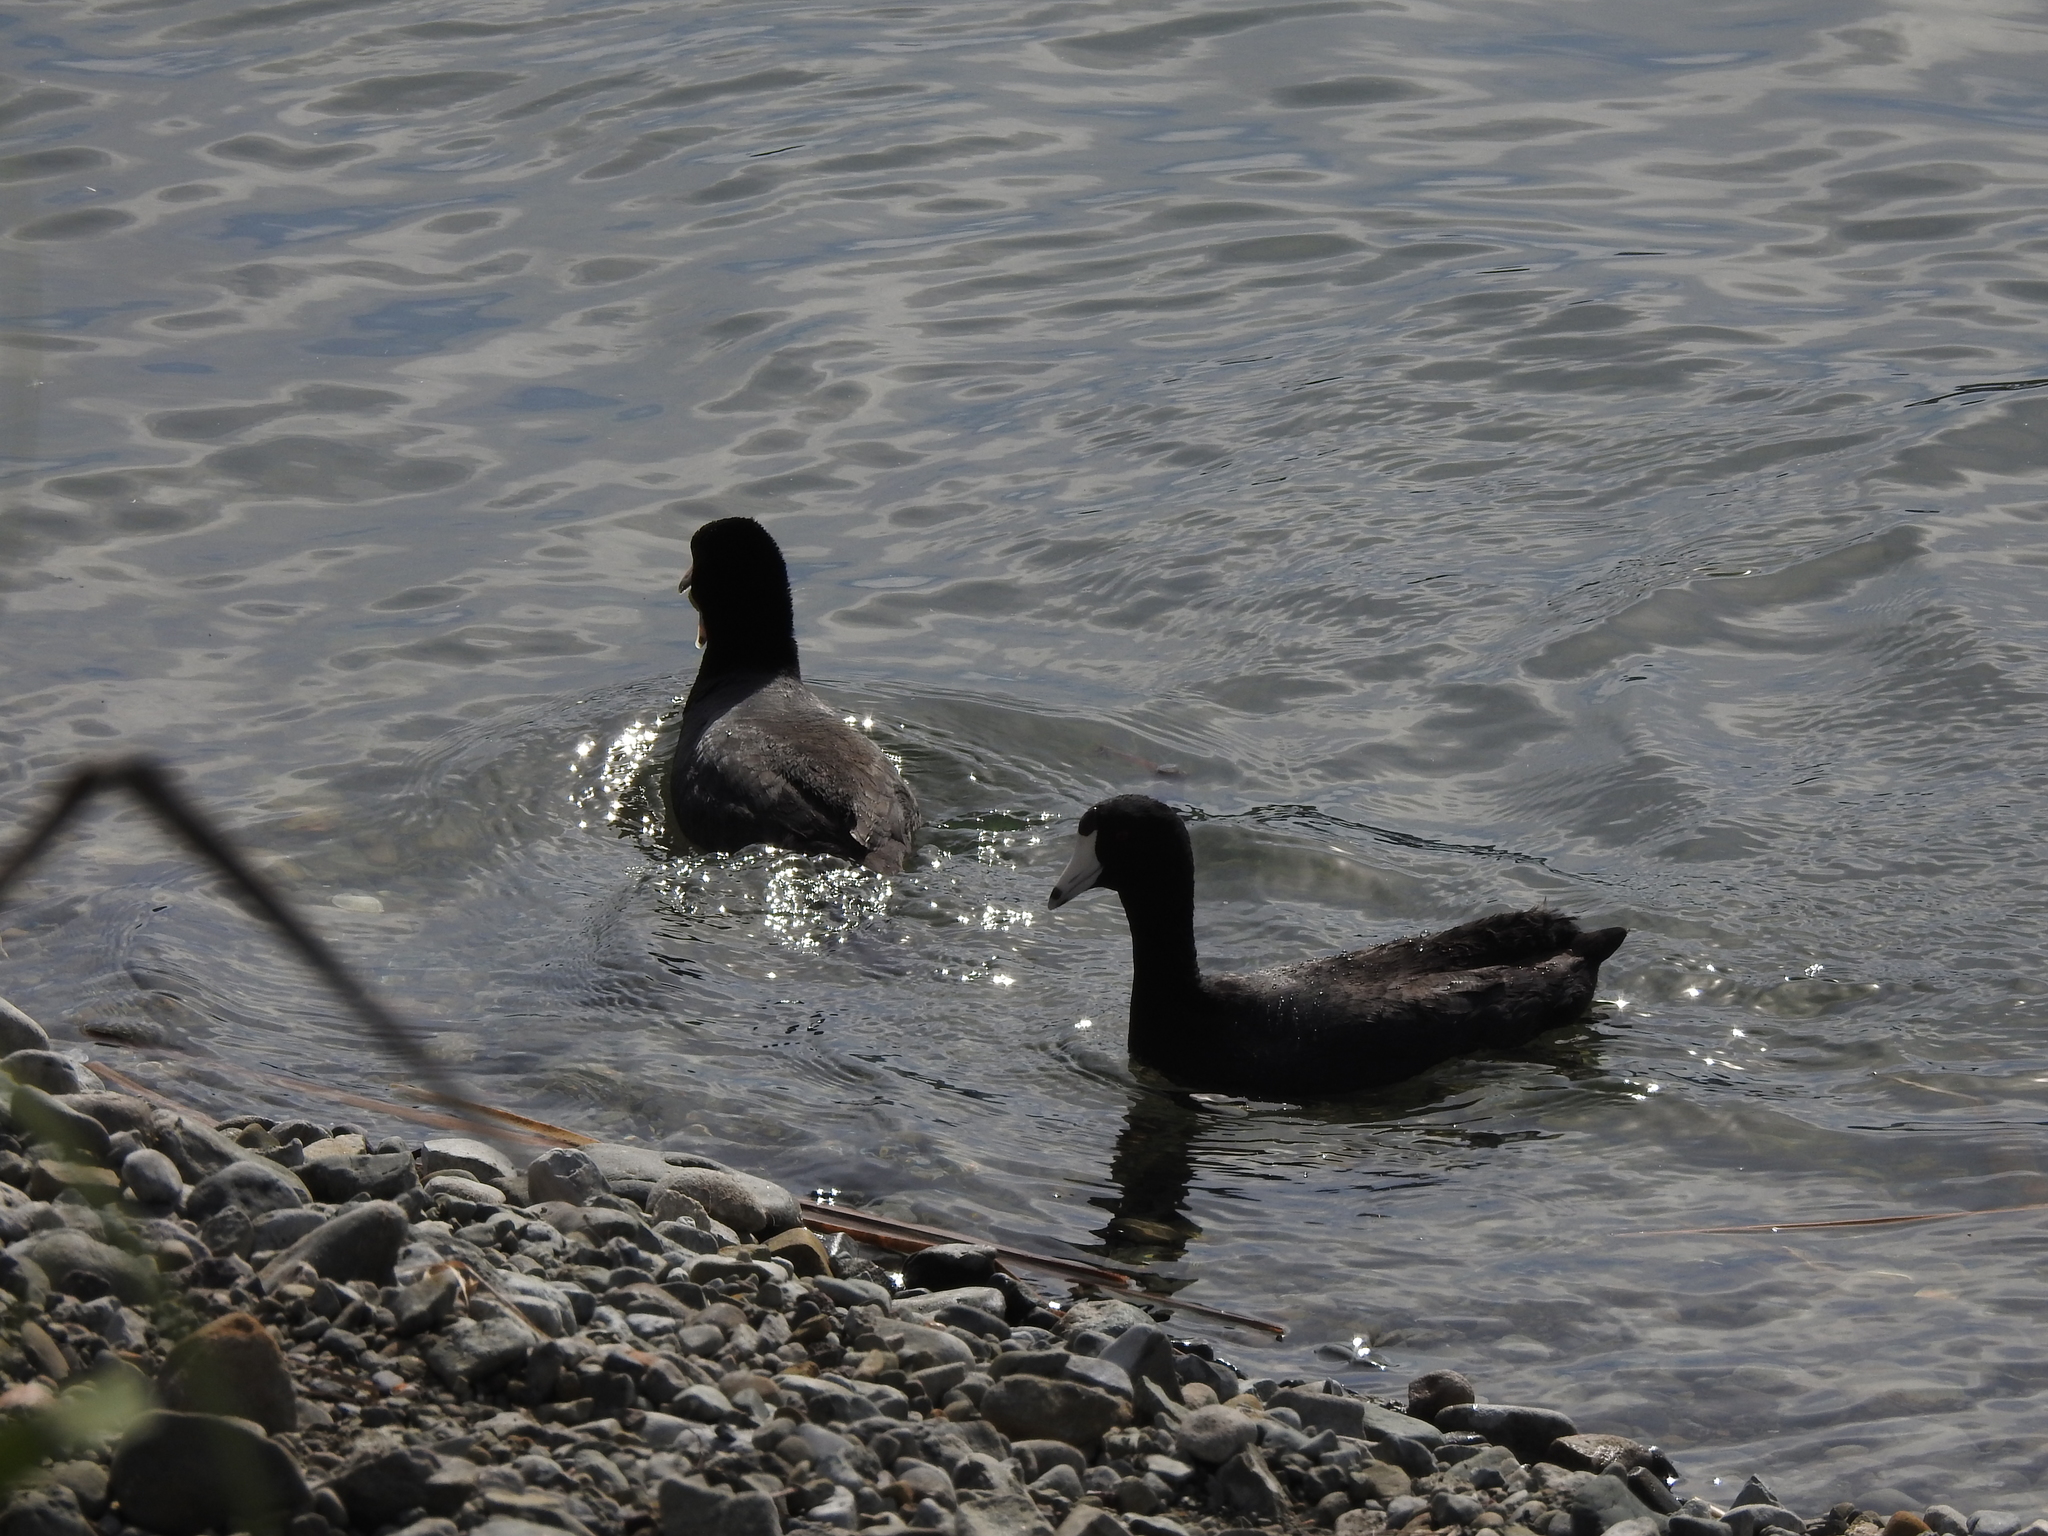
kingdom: Animalia
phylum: Chordata
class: Aves
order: Gruiformes
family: Rallidae
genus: Fulica
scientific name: Fulica americana
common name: American coot
